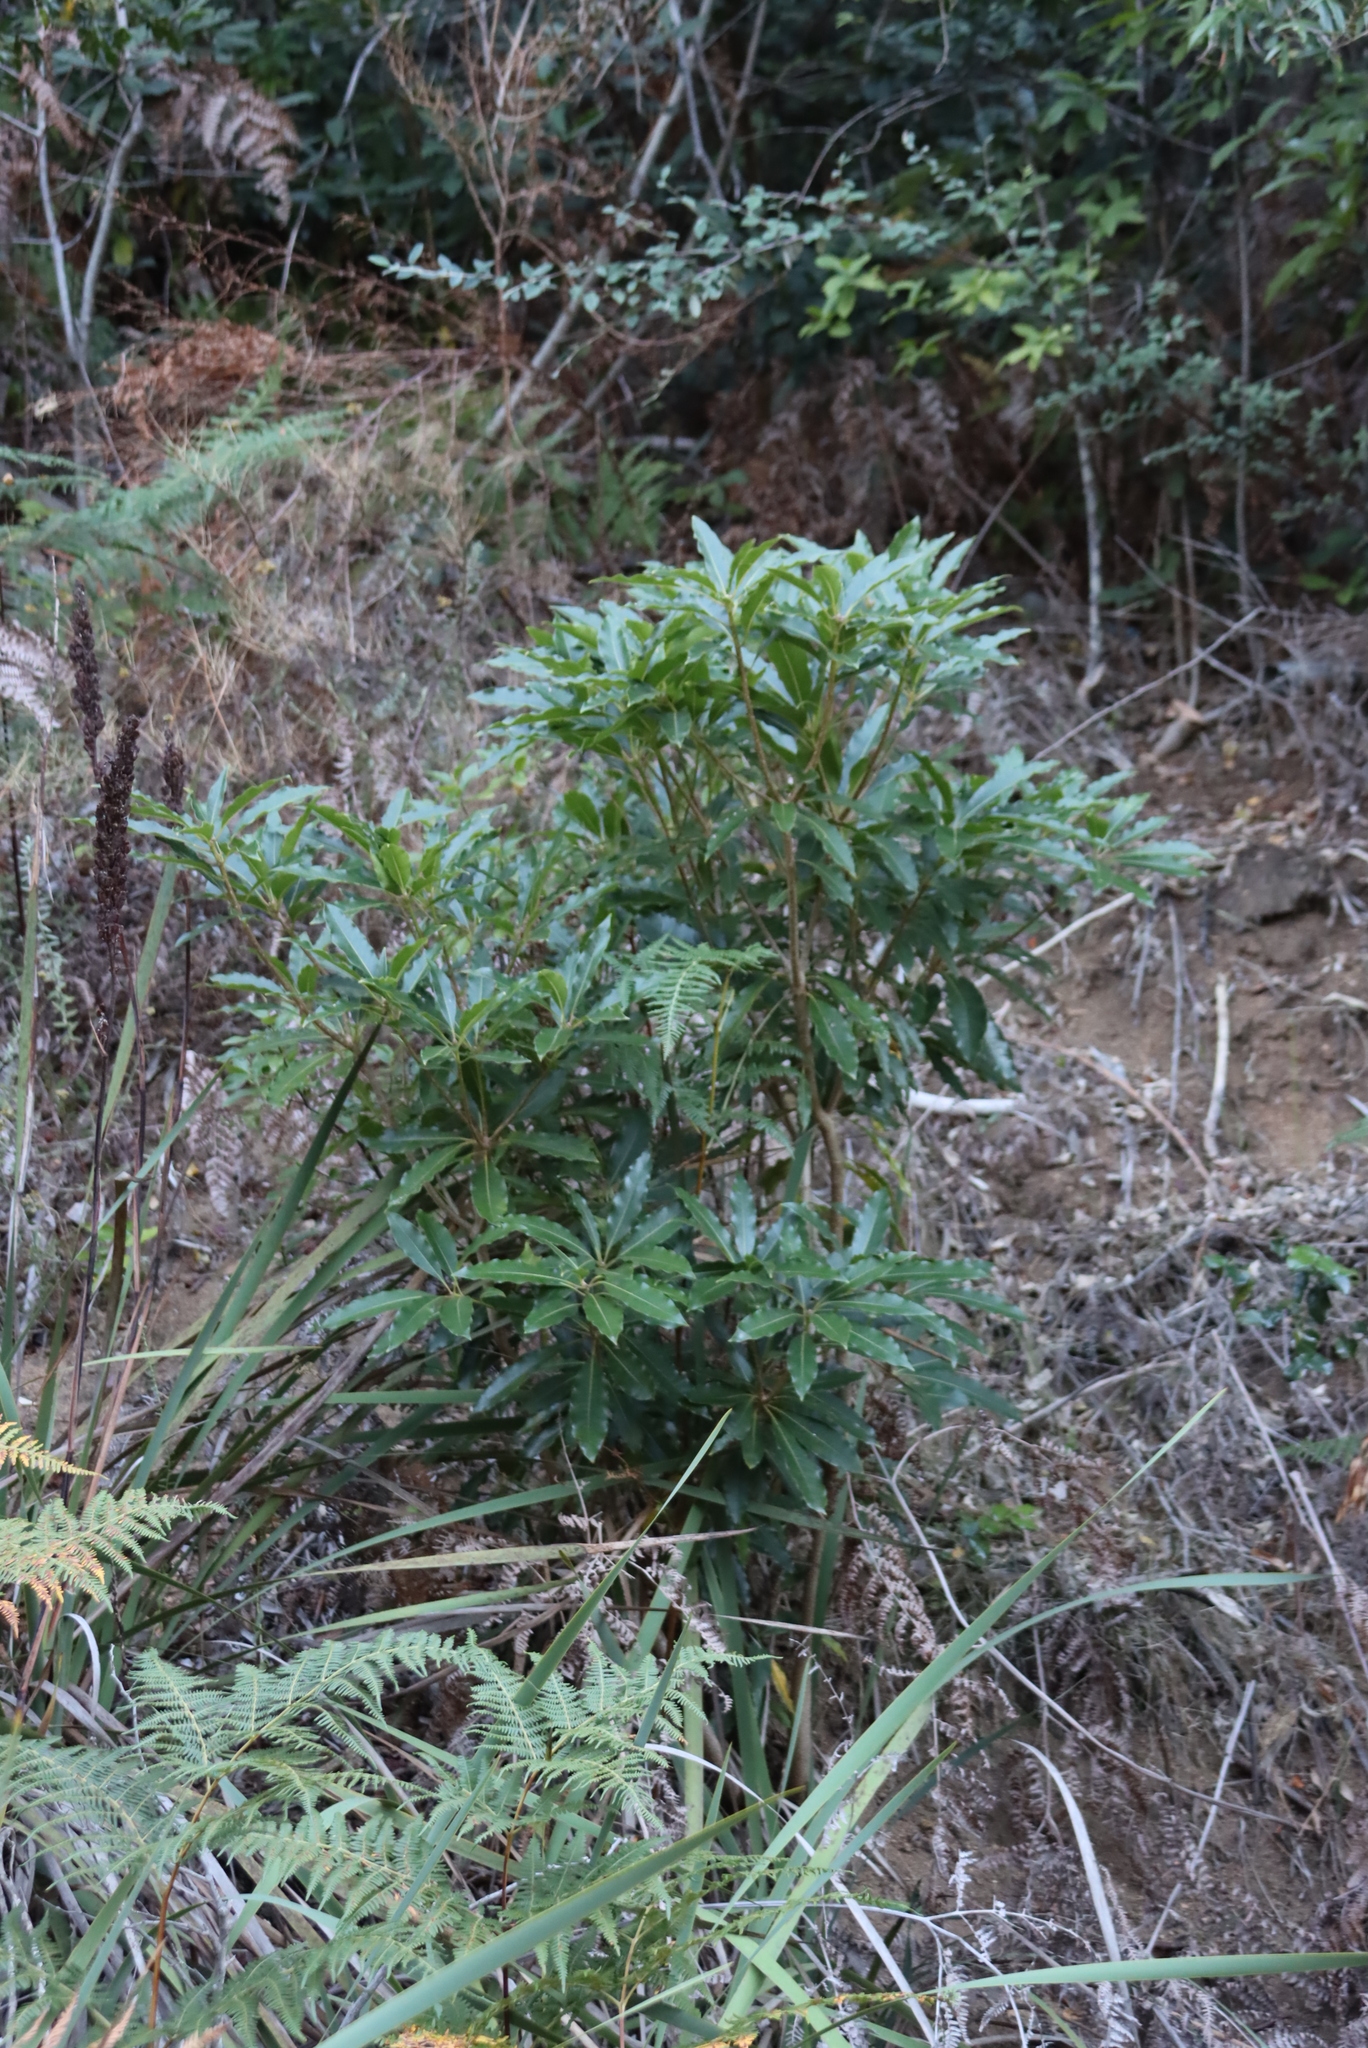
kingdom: Plantae
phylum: Tracheophyta
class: Magnoliopsida
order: Apiales
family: Pittosporaceae
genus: Pittosporum
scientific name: Pittosporum undulatum
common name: Australian cheesewood
